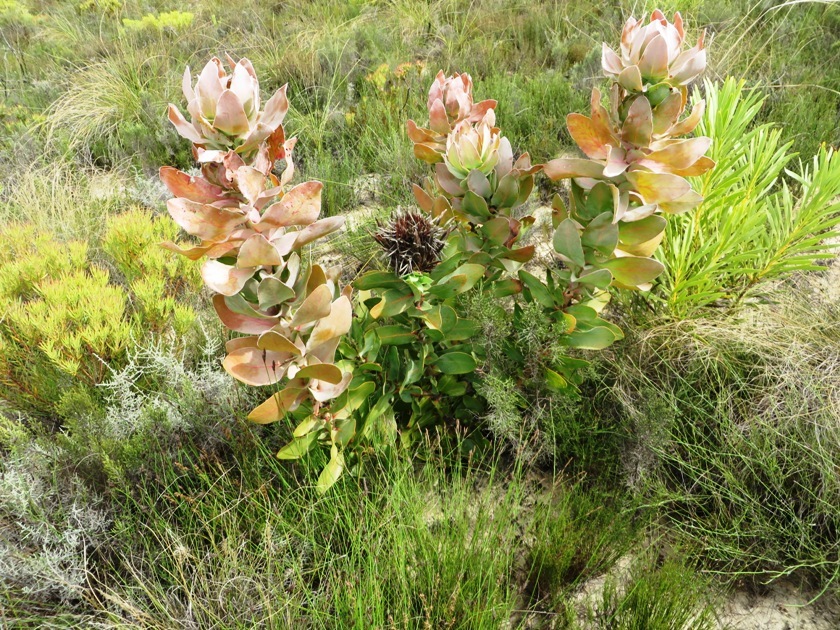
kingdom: Plantae
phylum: Tracheophyta
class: Magnoliopsida
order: Proteales
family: Proteaceae
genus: Protea
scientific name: Protea eximia
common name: Broad-leaved sugarbush
